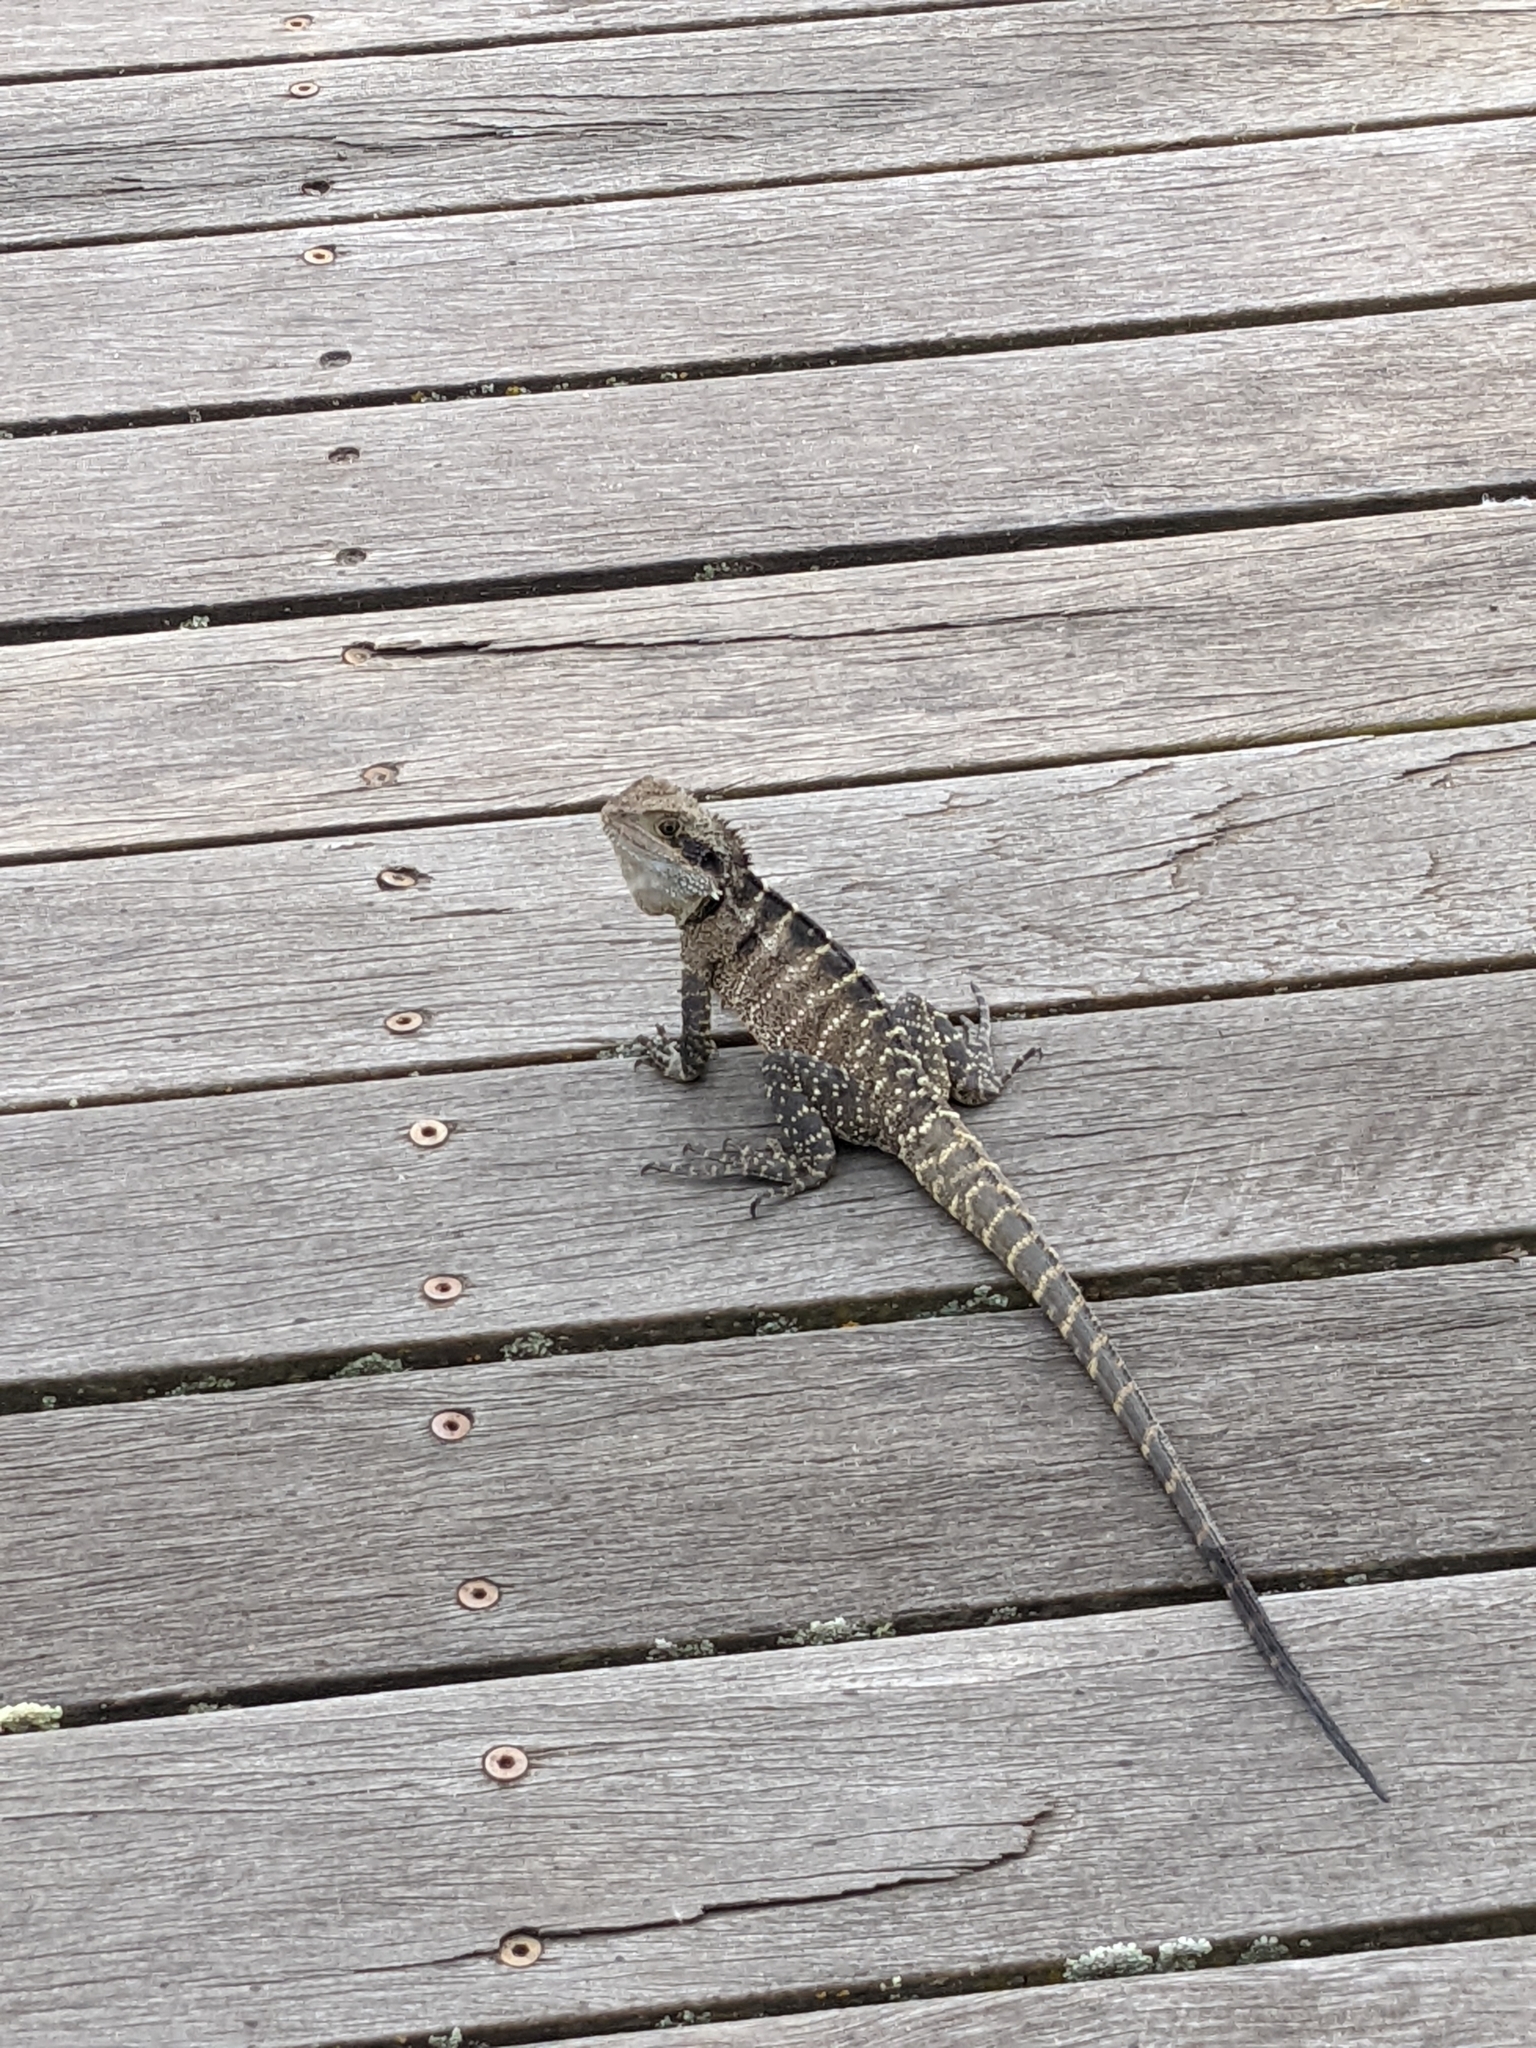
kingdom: Animalia
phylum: Chordata
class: Squamata
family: Agamidae
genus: Intellagama
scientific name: Intellagama lesueurii
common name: Eastern water dragon
